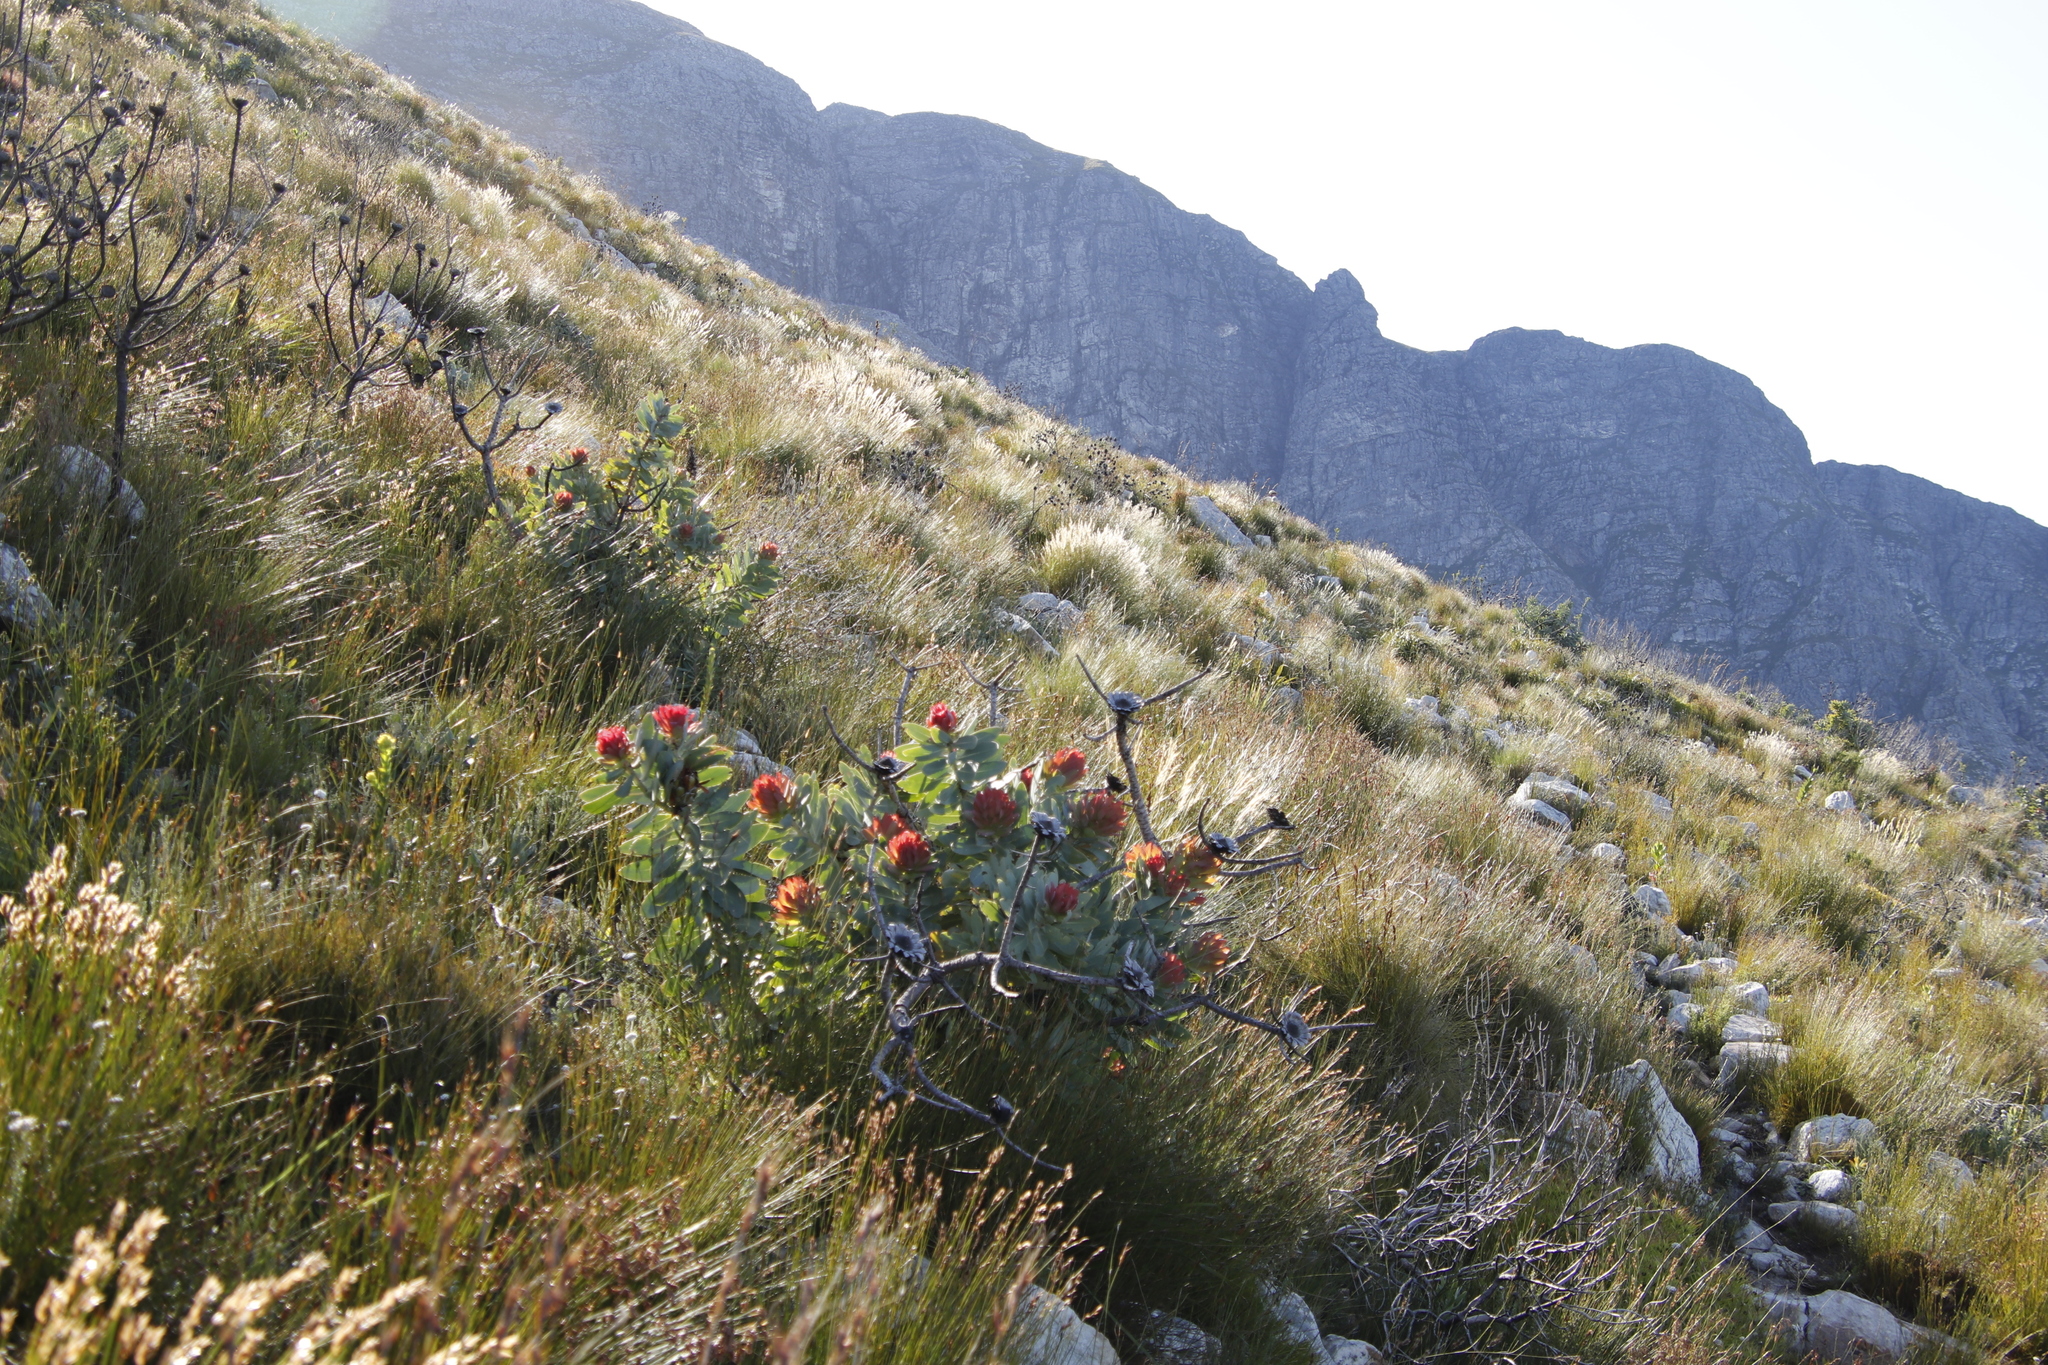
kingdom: Plantae
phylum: Tracheophyta
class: Magnoliopsida
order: Proteales
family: Proteaceae
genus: Protea
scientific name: Protea nitida
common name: Tree protea
